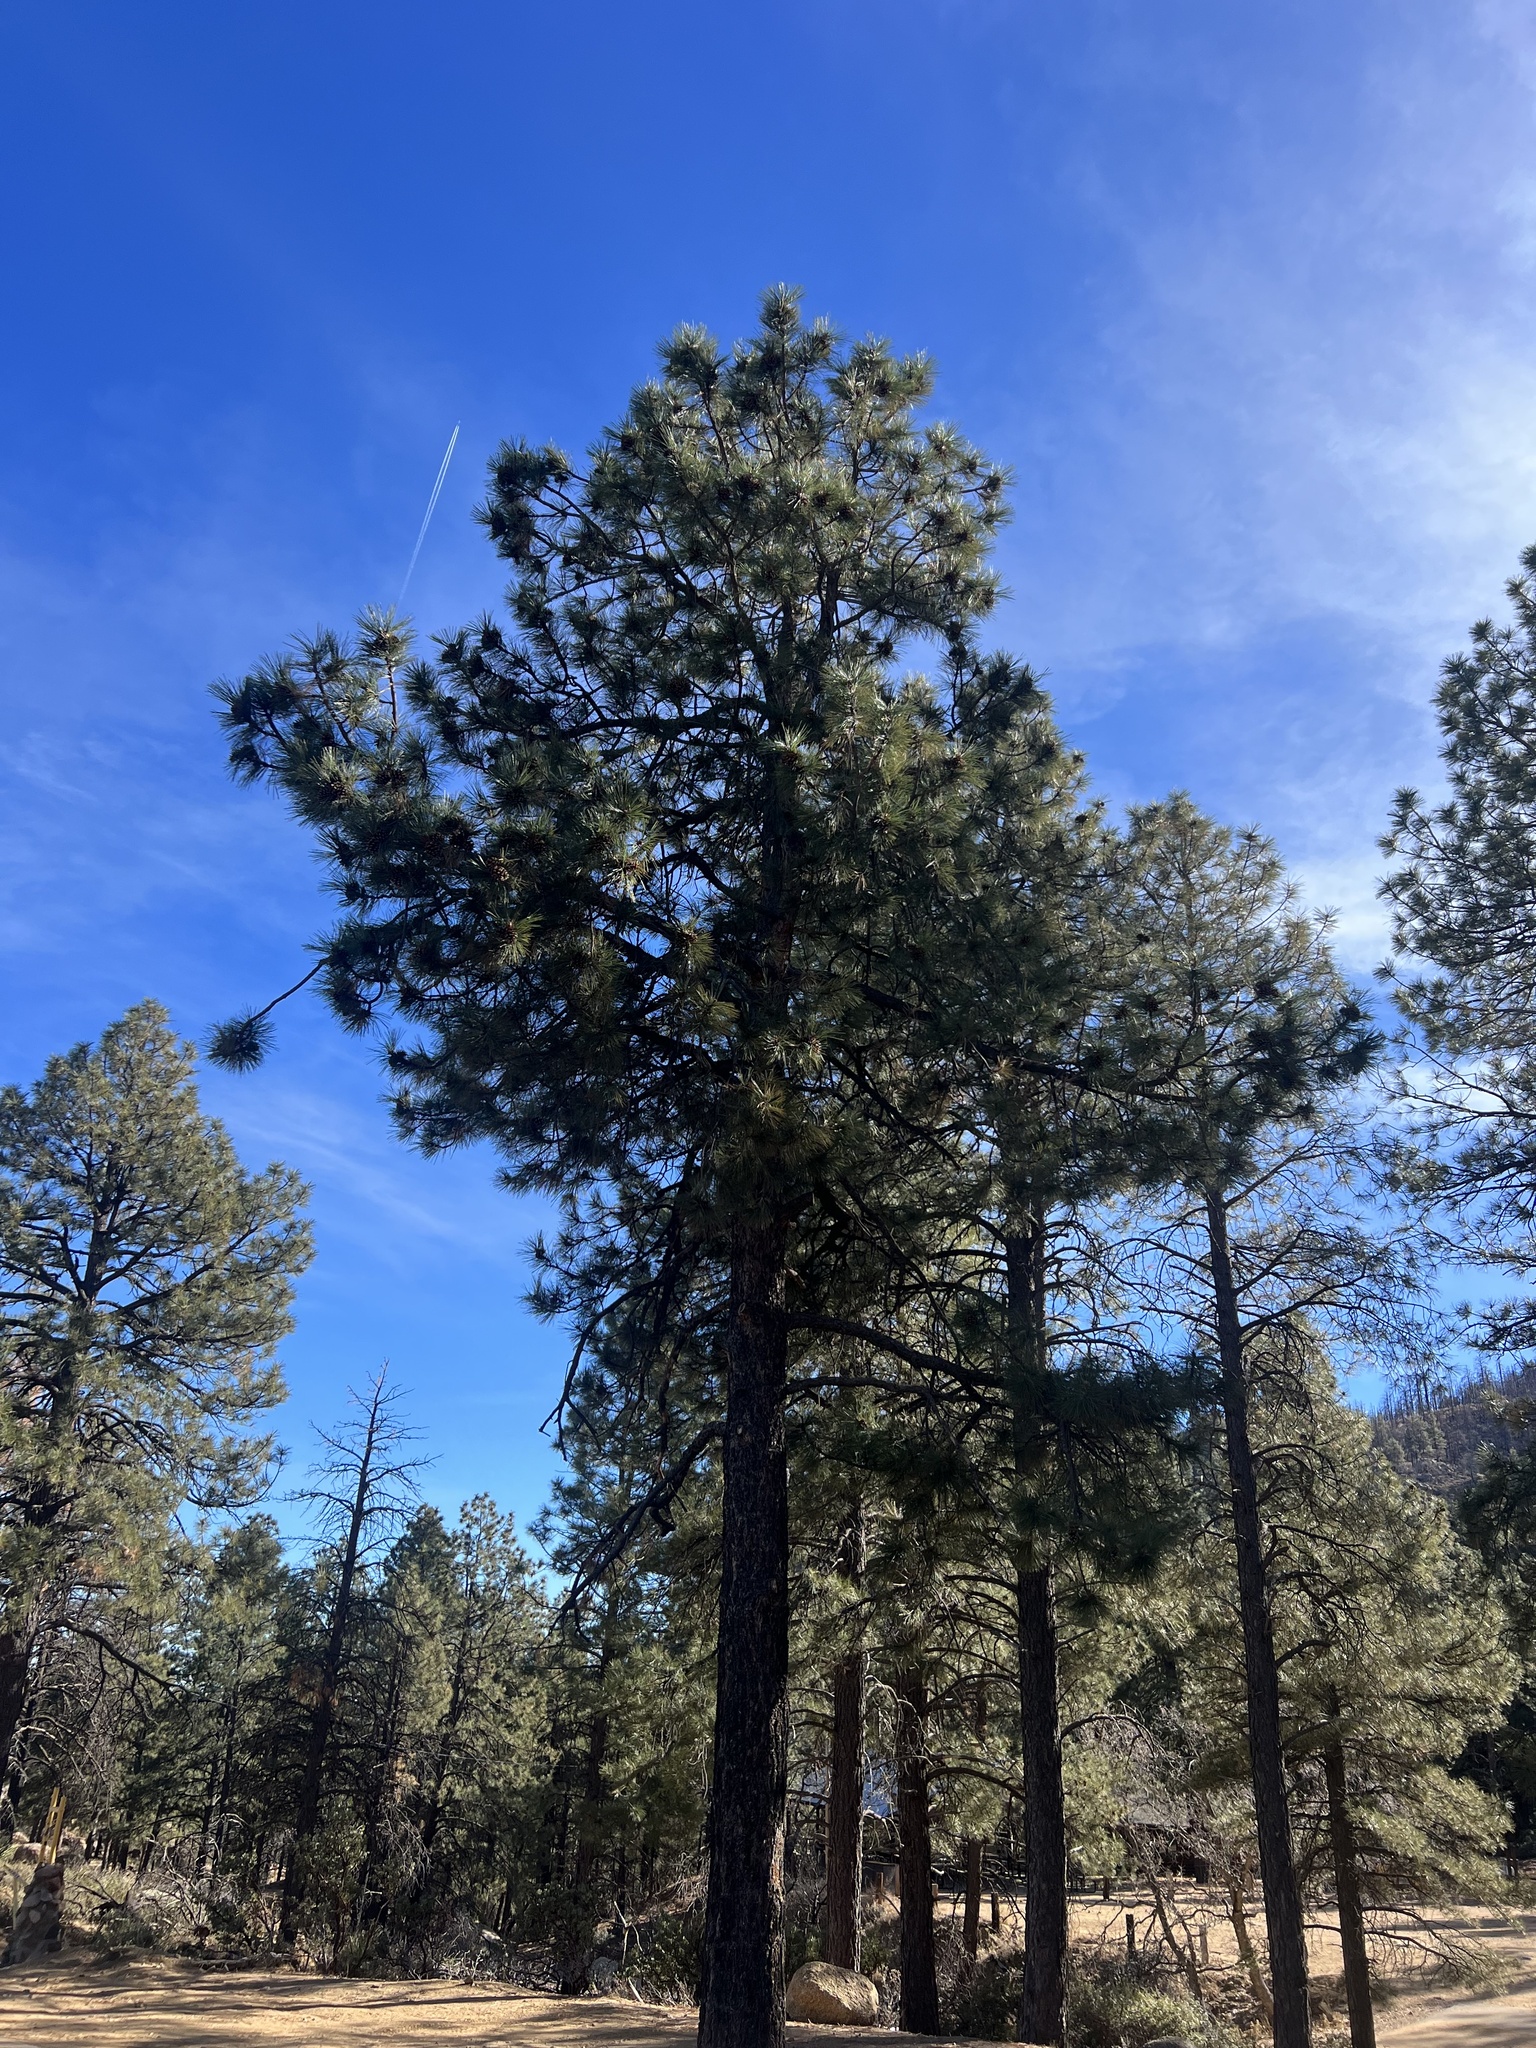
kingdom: Plantae
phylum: Tracheophyta
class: Pinopsida
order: Pinales
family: Pinaceae
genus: Pinus
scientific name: Pinus ponderosa
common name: Western yellow-pine
